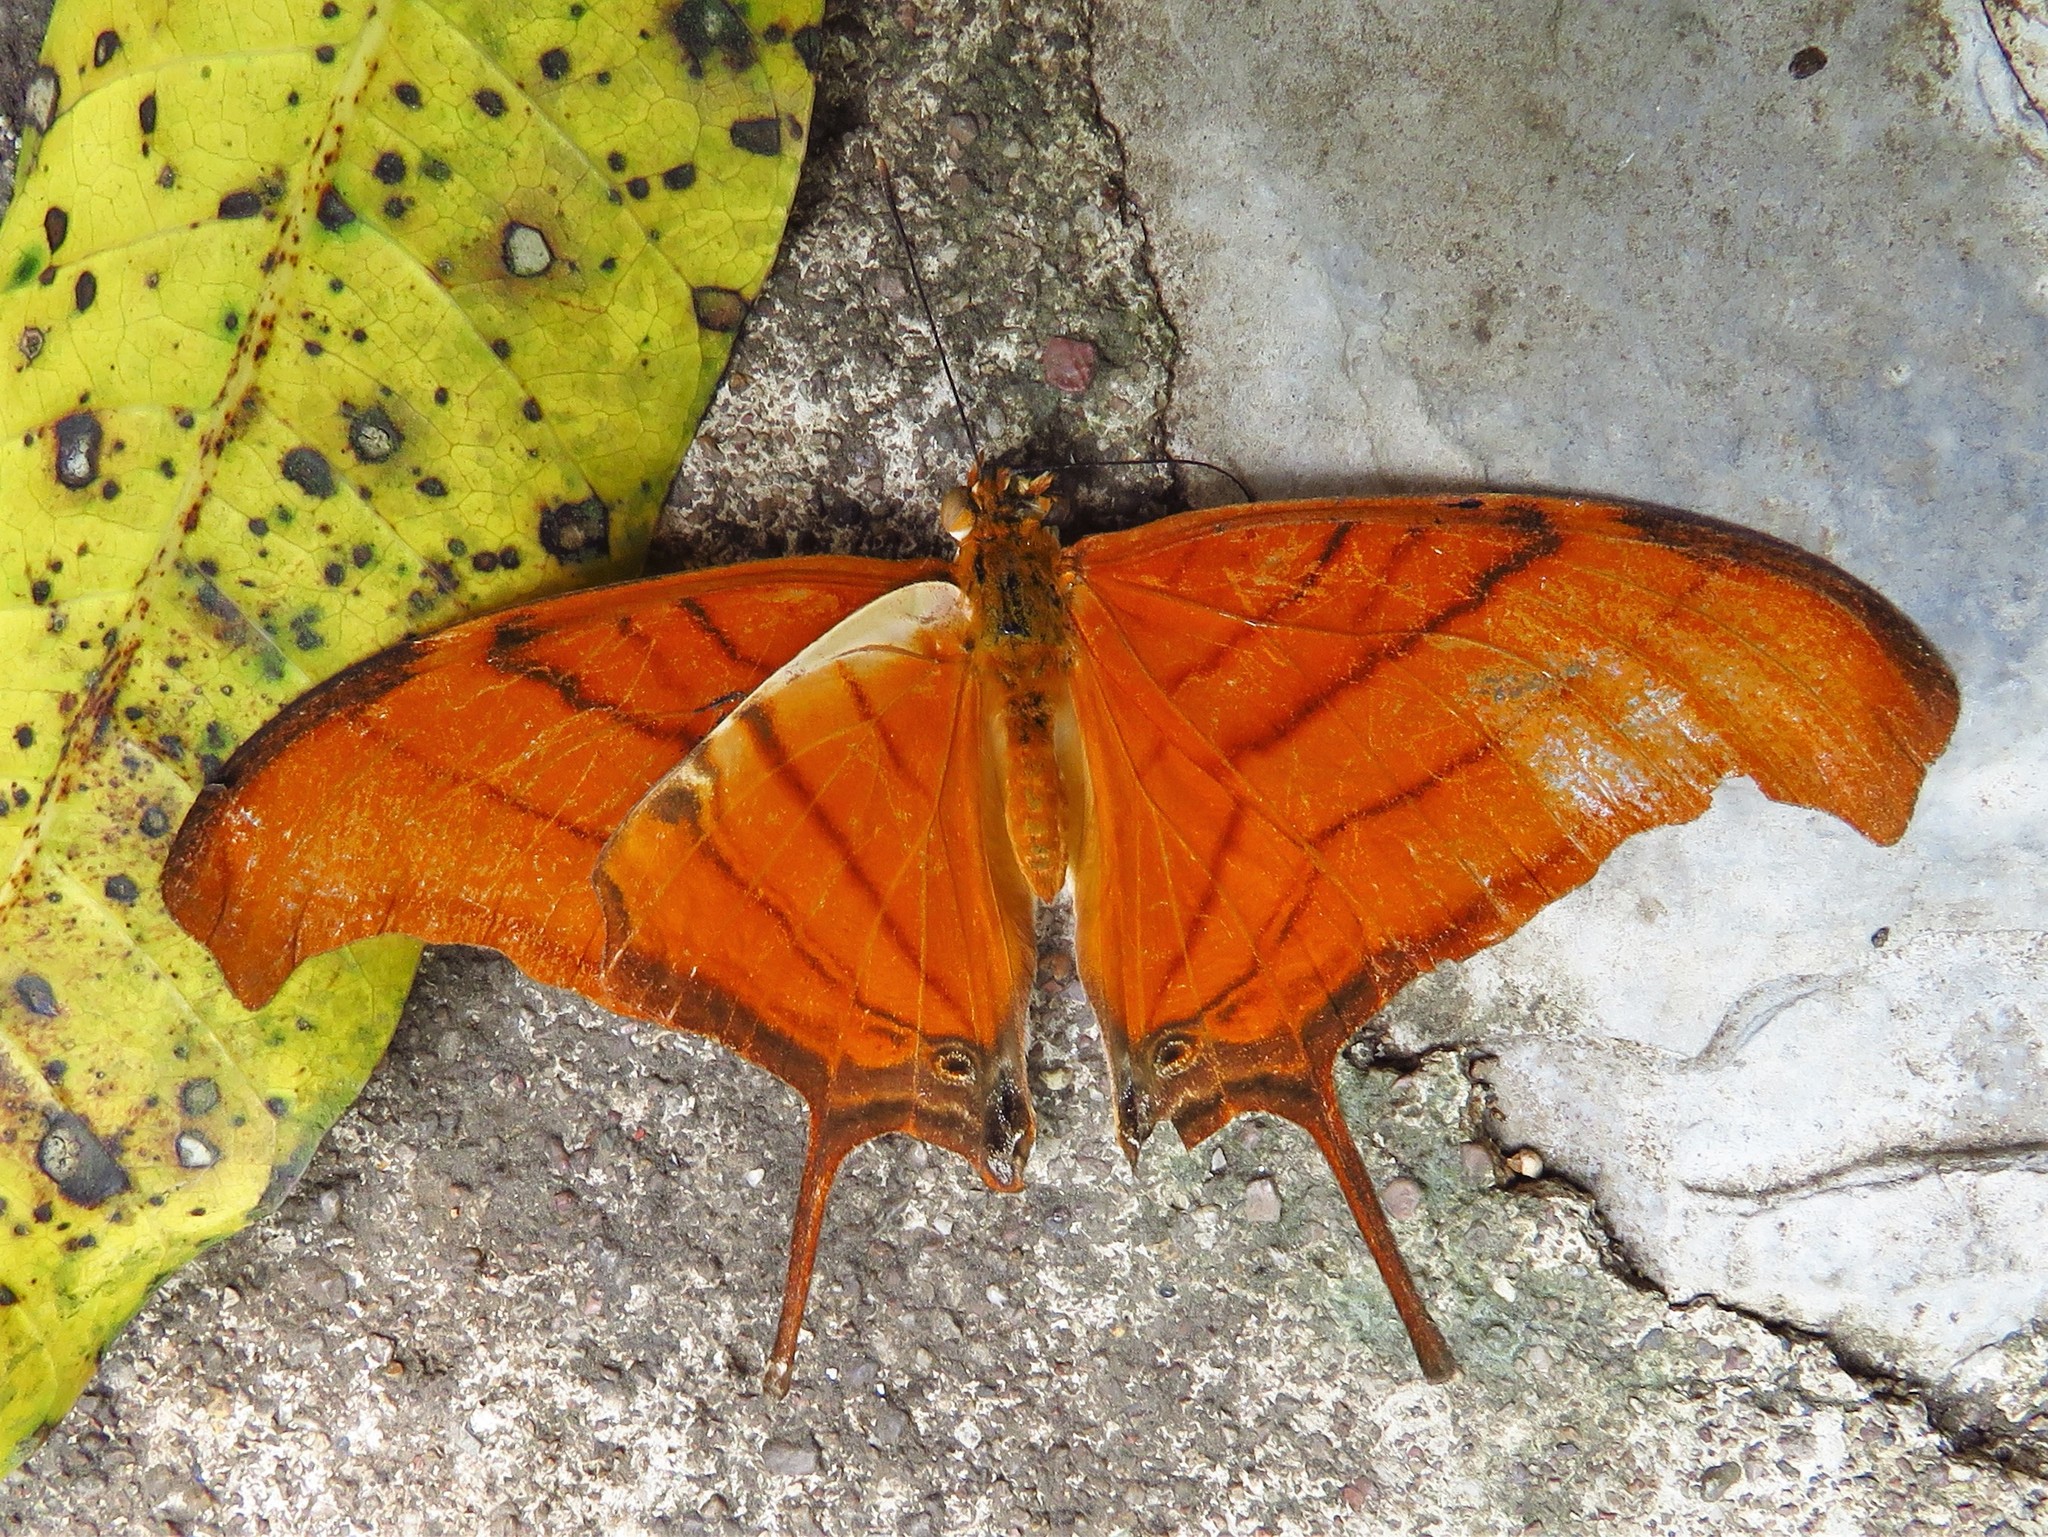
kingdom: Animalia
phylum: Arthropoda
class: Insecta
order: Lepidoptera
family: Nymphalidae
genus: Marpesia
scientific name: Marpesia petreus
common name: Red dagger wing
